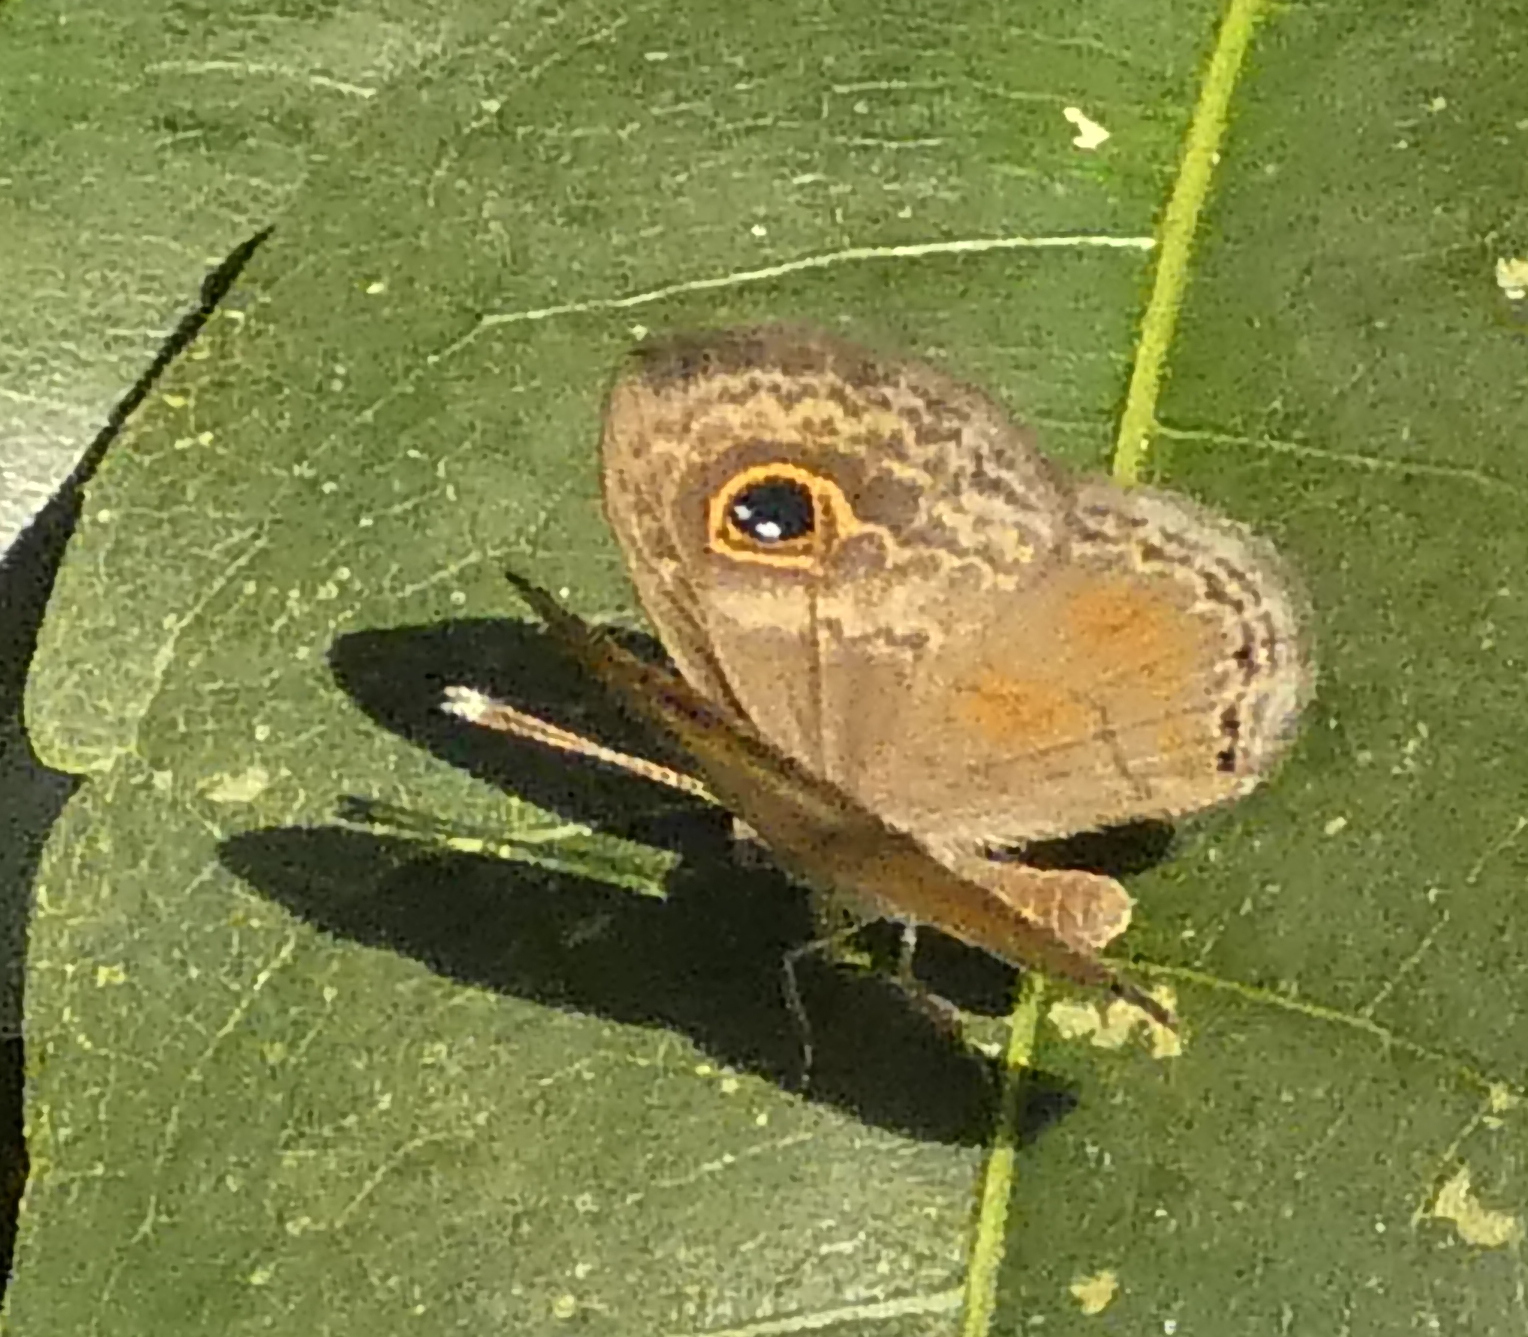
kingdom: Animalia
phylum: Arthropoda
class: Insecta
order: Lepidoptera
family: Riodinidae
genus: Perophthalma
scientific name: Perophthalma tullius
